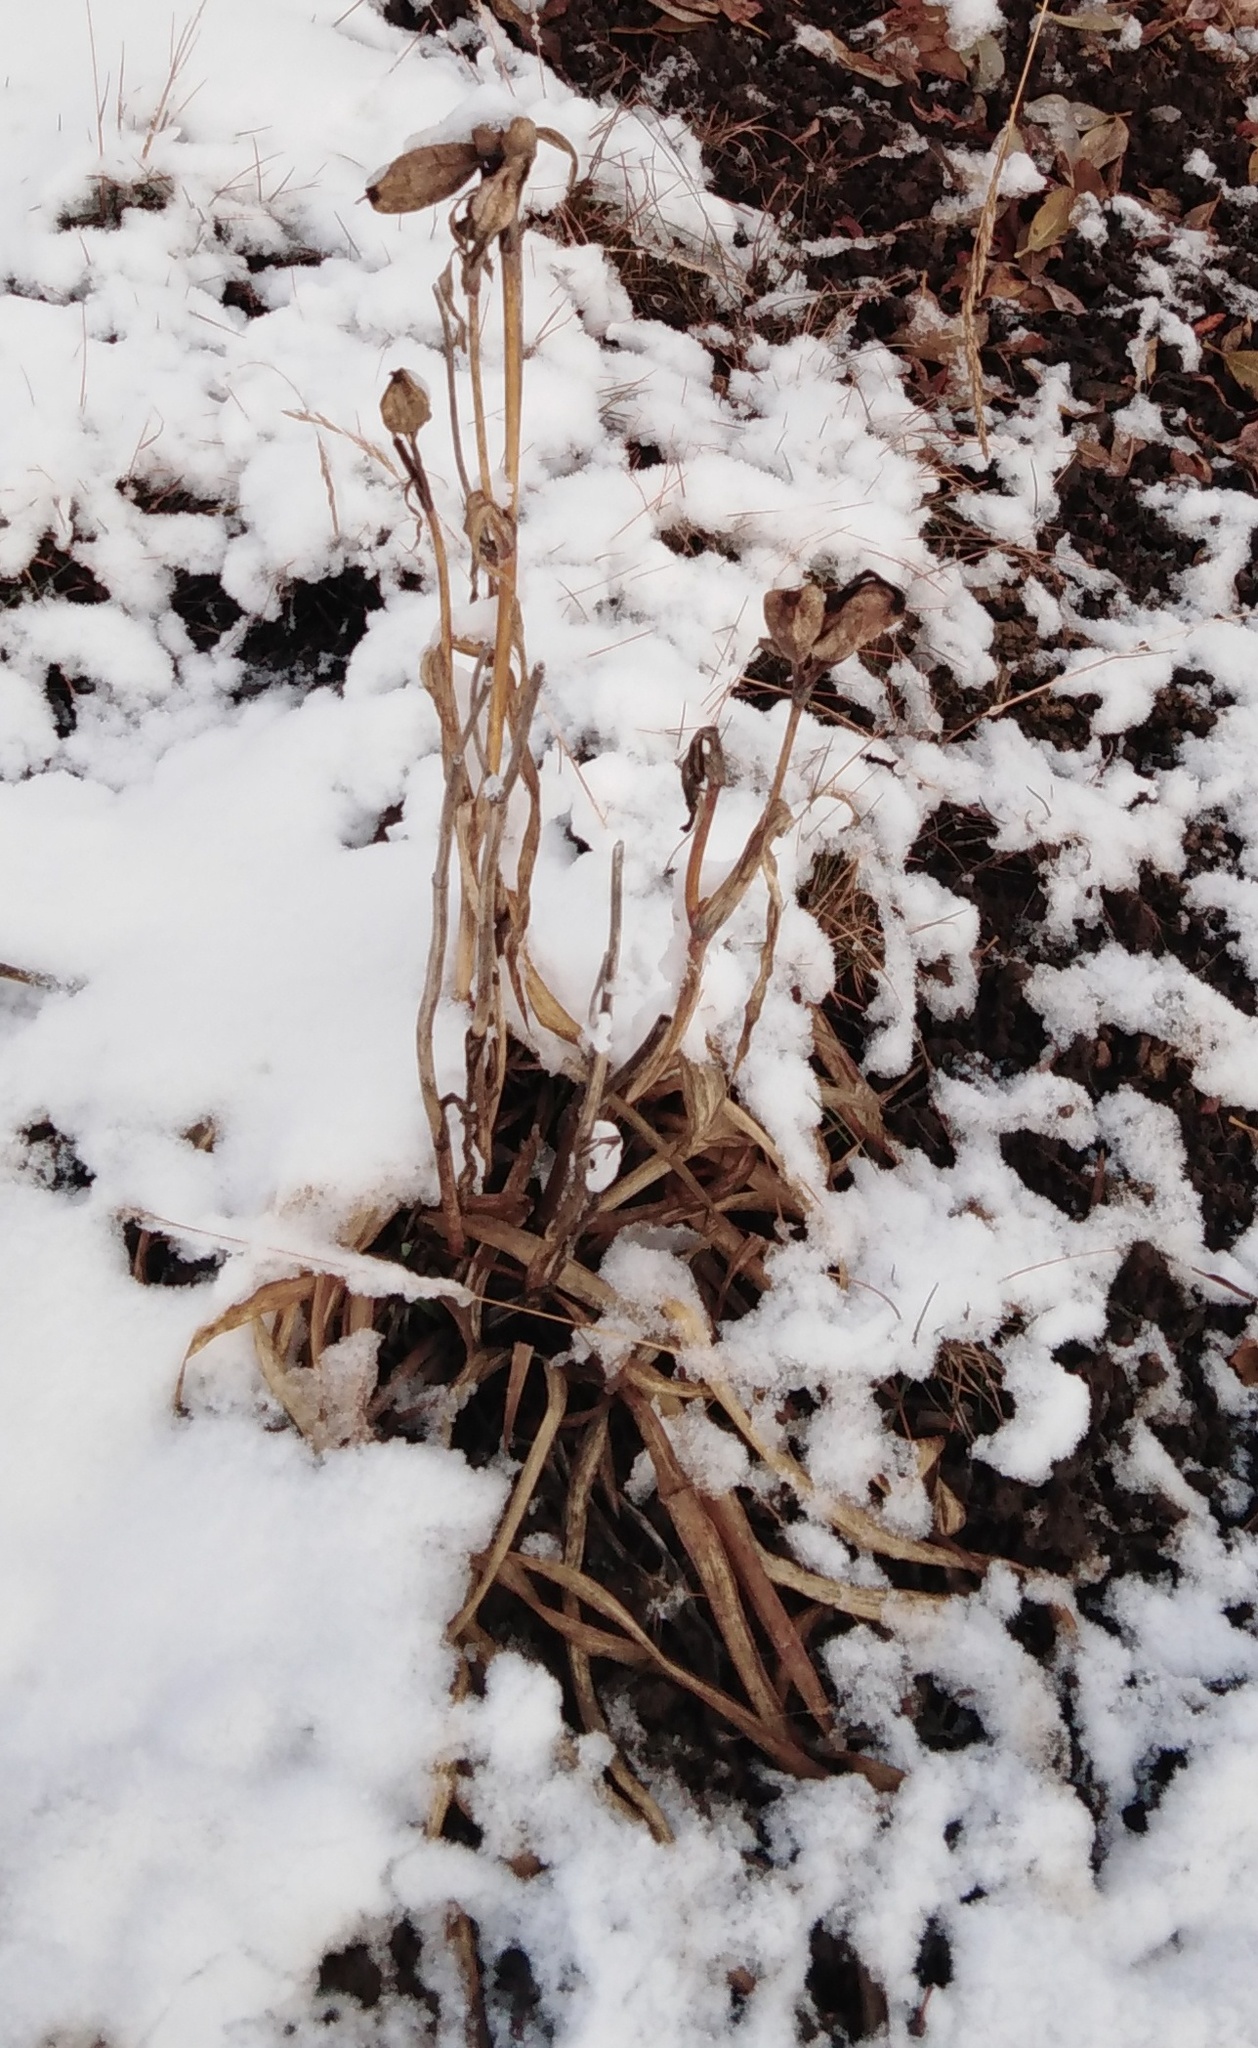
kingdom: Plantae
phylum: Tracheophyta
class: Liliopsida
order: Asparagales
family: Iridaceae
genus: Iris
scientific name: Iris setosa
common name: Arctic blue flag
